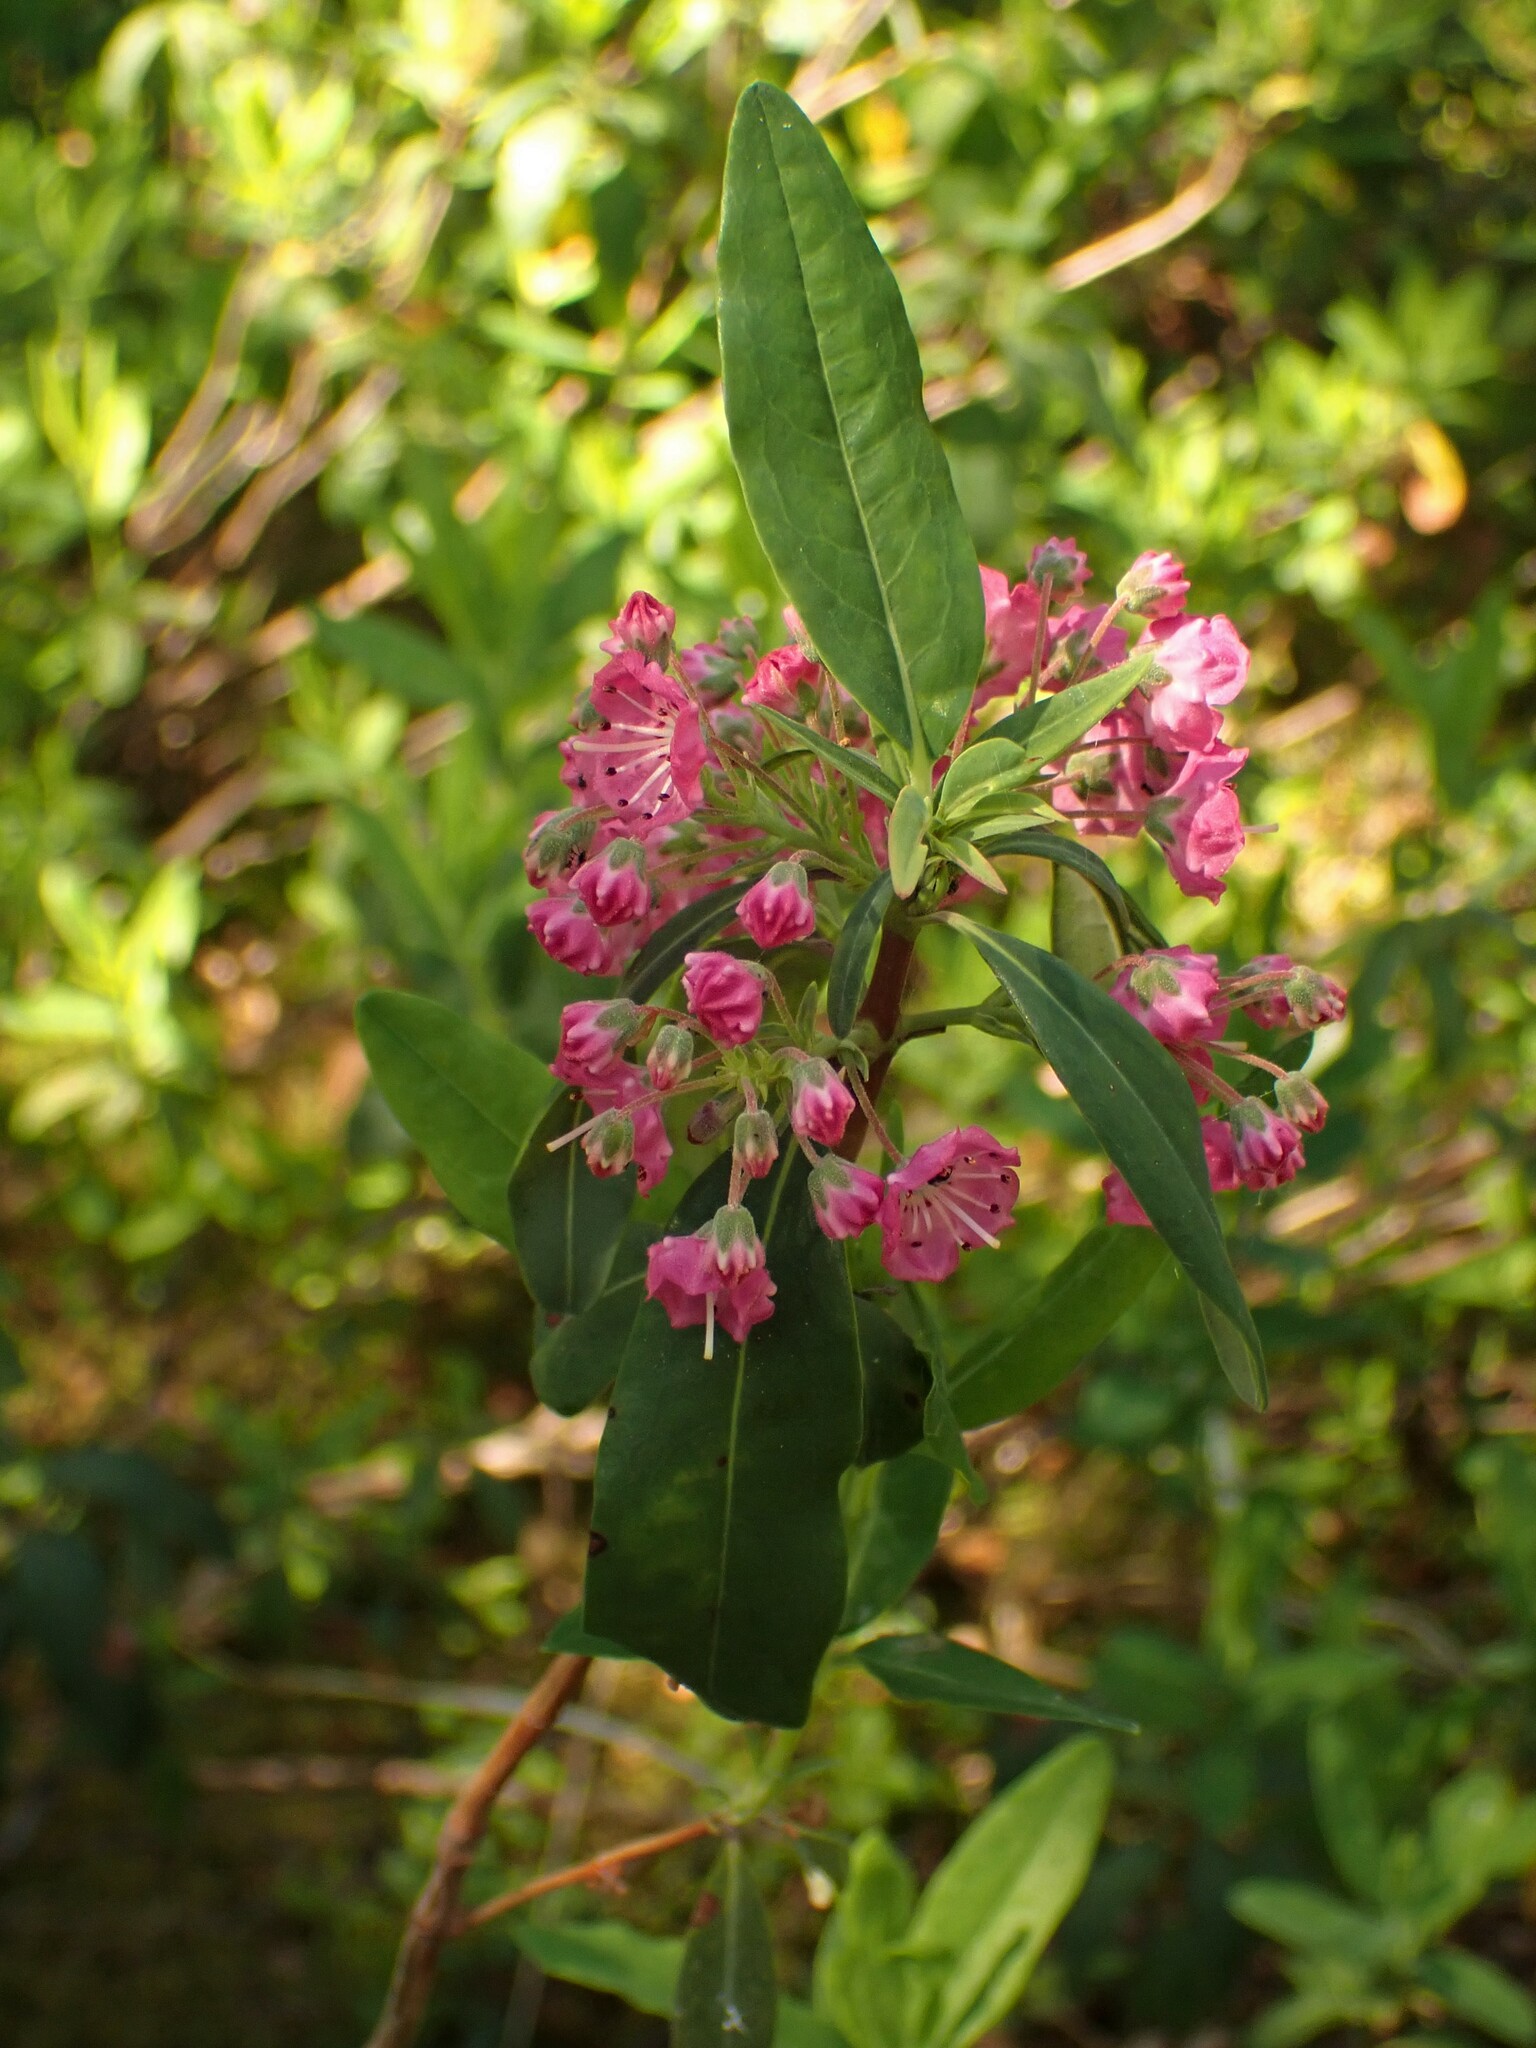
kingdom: Plantae
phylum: Tracheophyta
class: Magnoliopsida
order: Ericales
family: Ericaceae
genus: Kalmia
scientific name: Kalmia angustifolia
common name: Sheep-laurel
